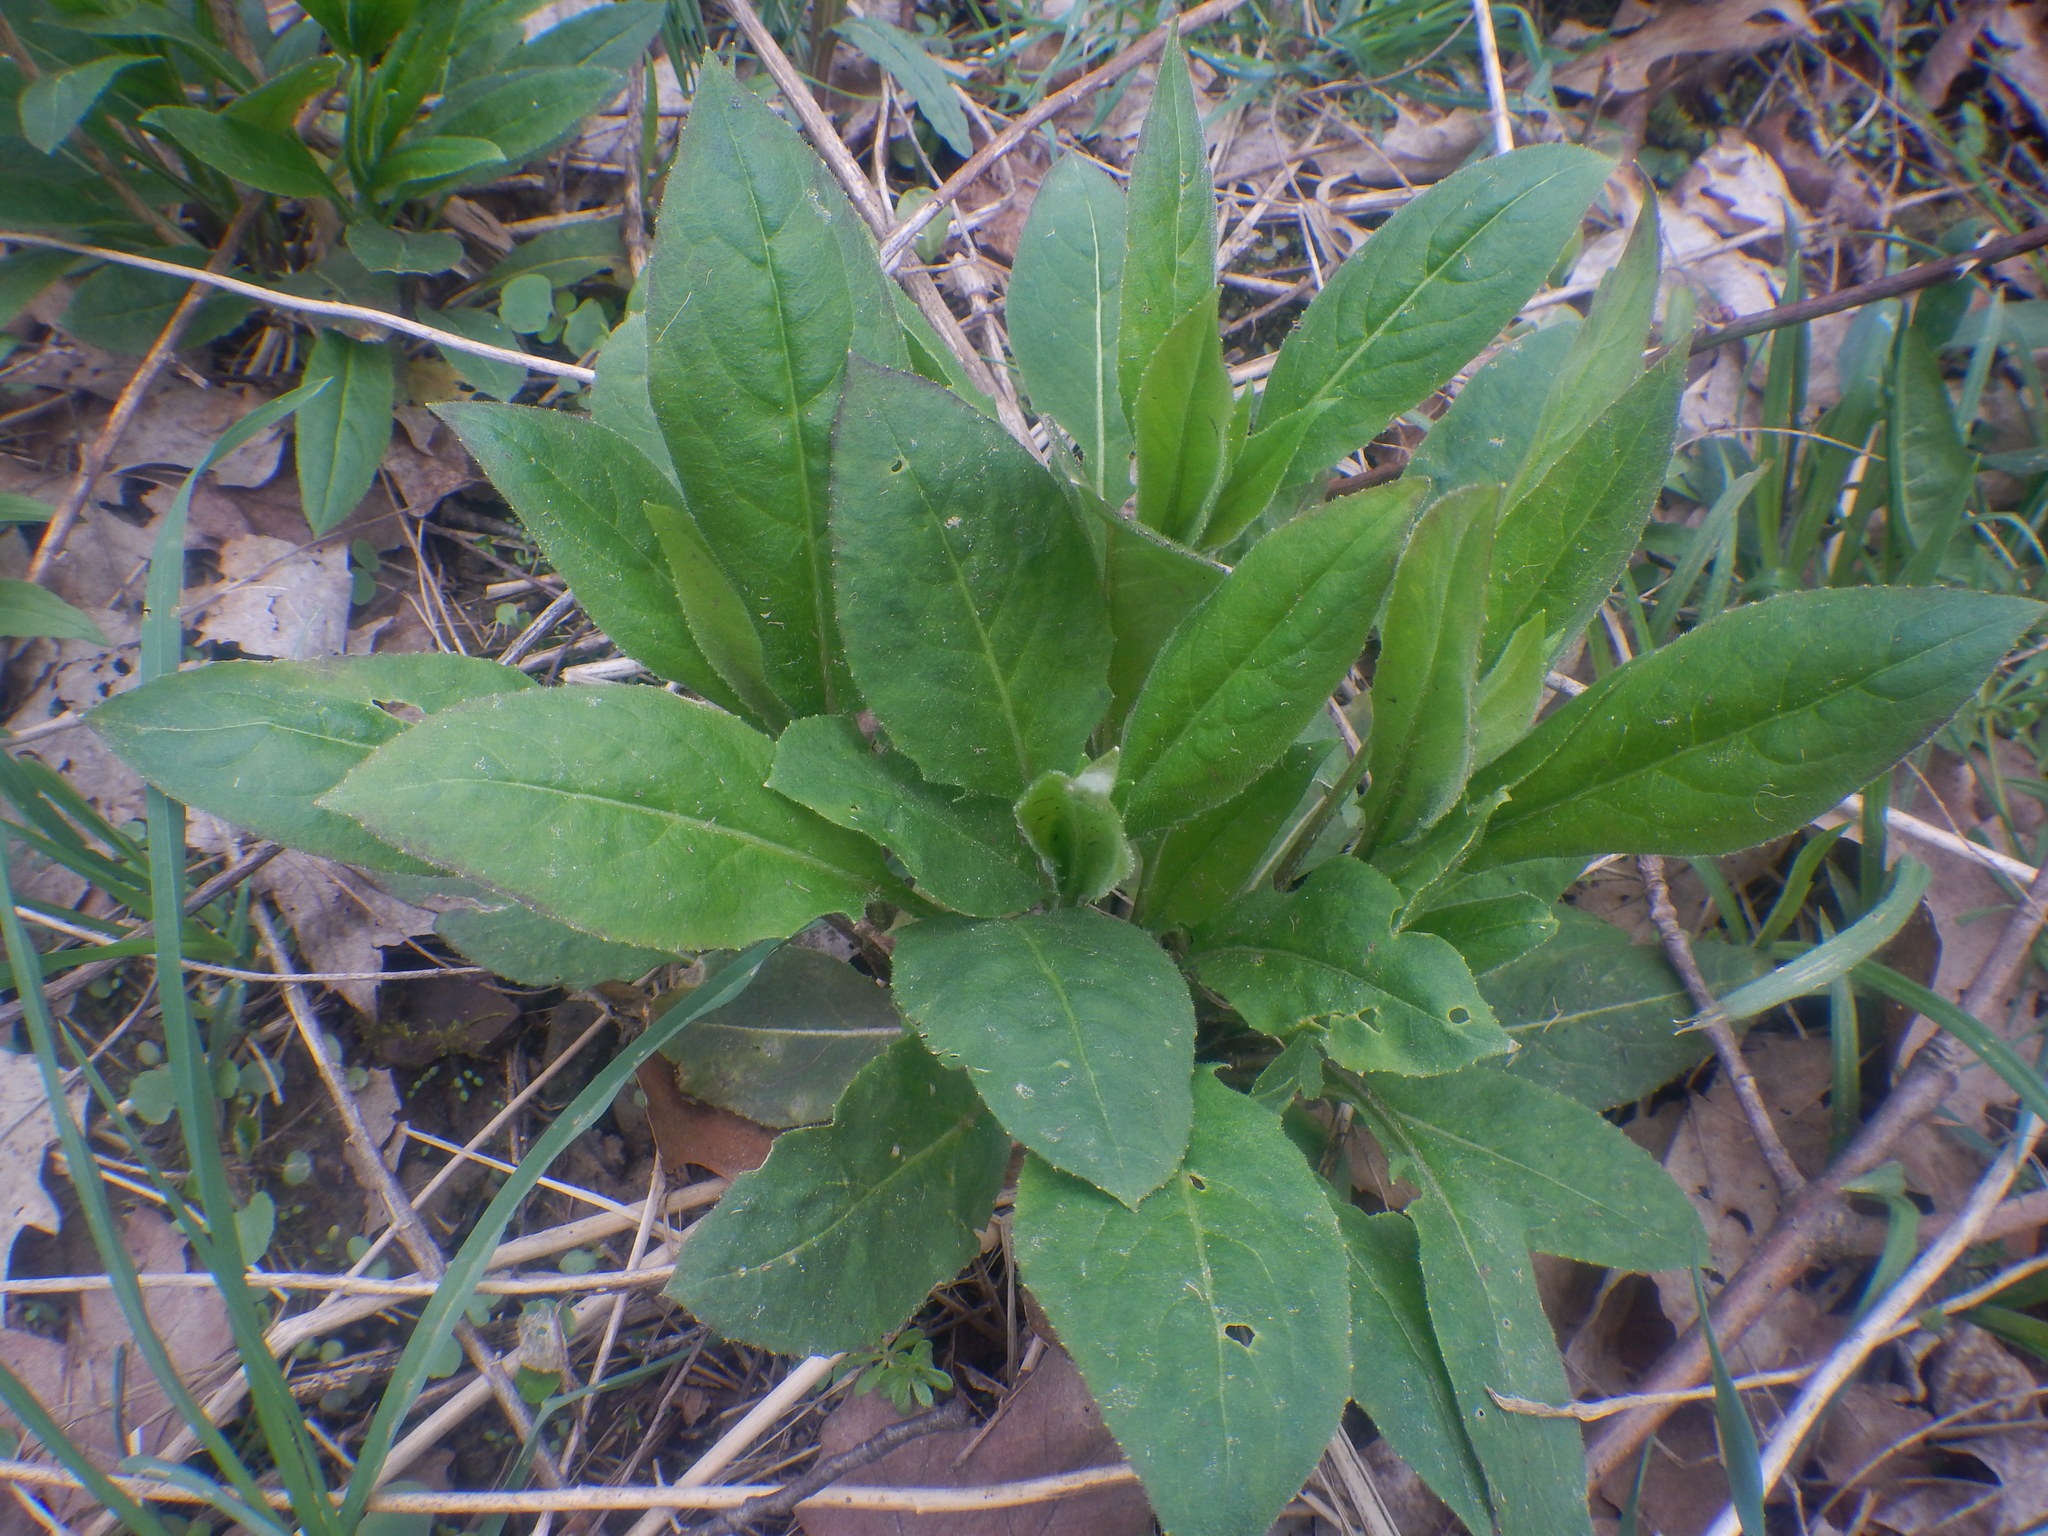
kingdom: Plantae
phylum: Tracheophyta
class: Magnoliopsida
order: Brassicales
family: Brassicaceae
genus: Hesperis
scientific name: Hesperis matronalis
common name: Dame's-violet
